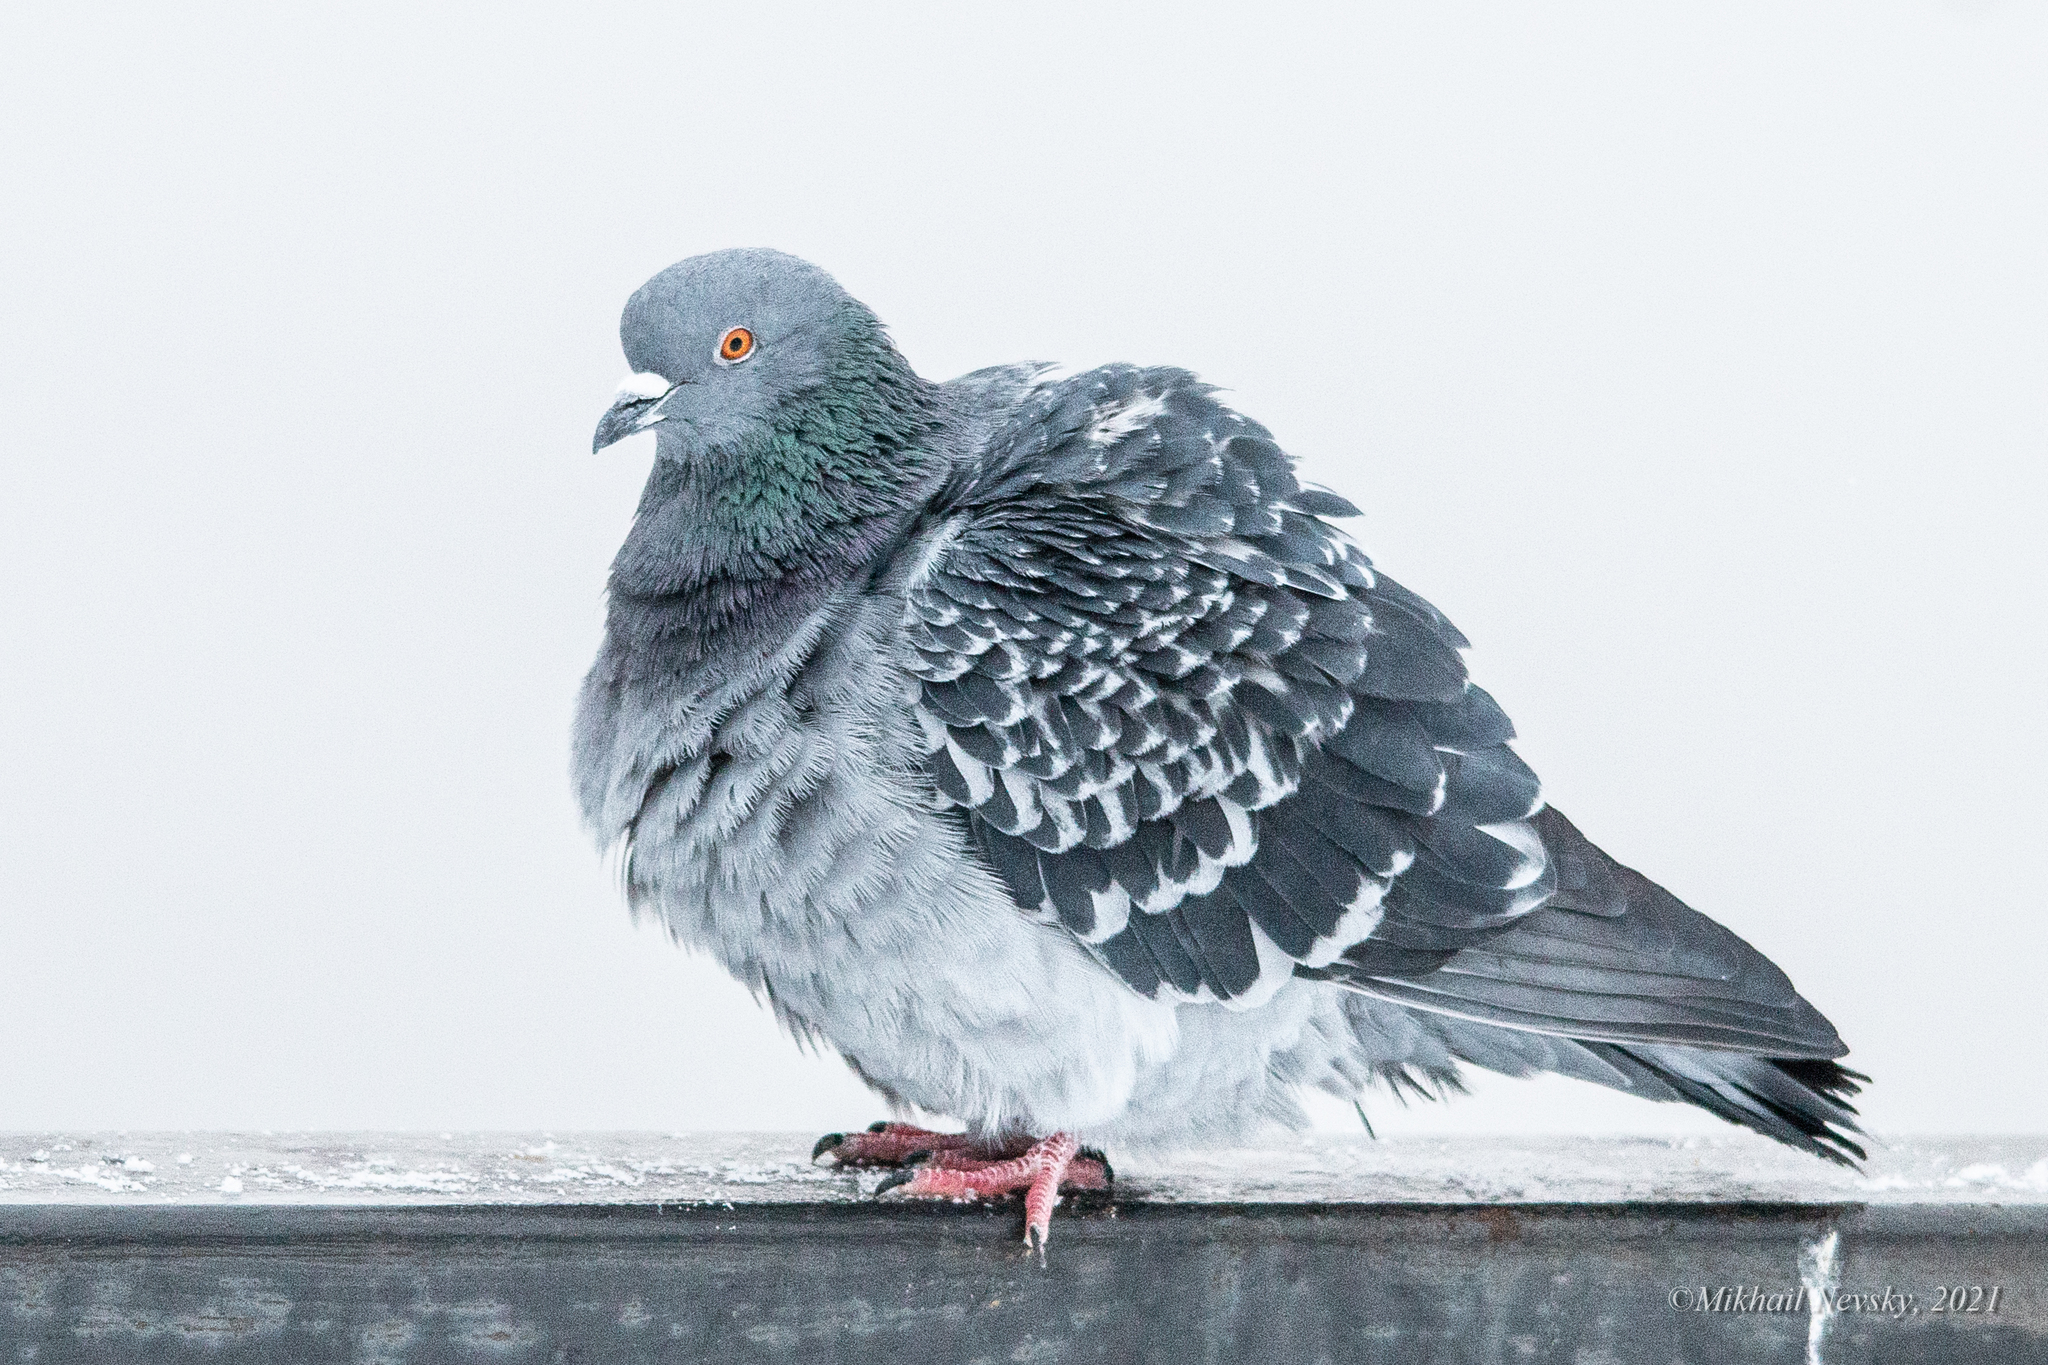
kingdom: Animalia
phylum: Chordata
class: Aves
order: Columbiformes
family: Columbidae
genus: Columba
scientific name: Columba livia
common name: Rock pigeon
